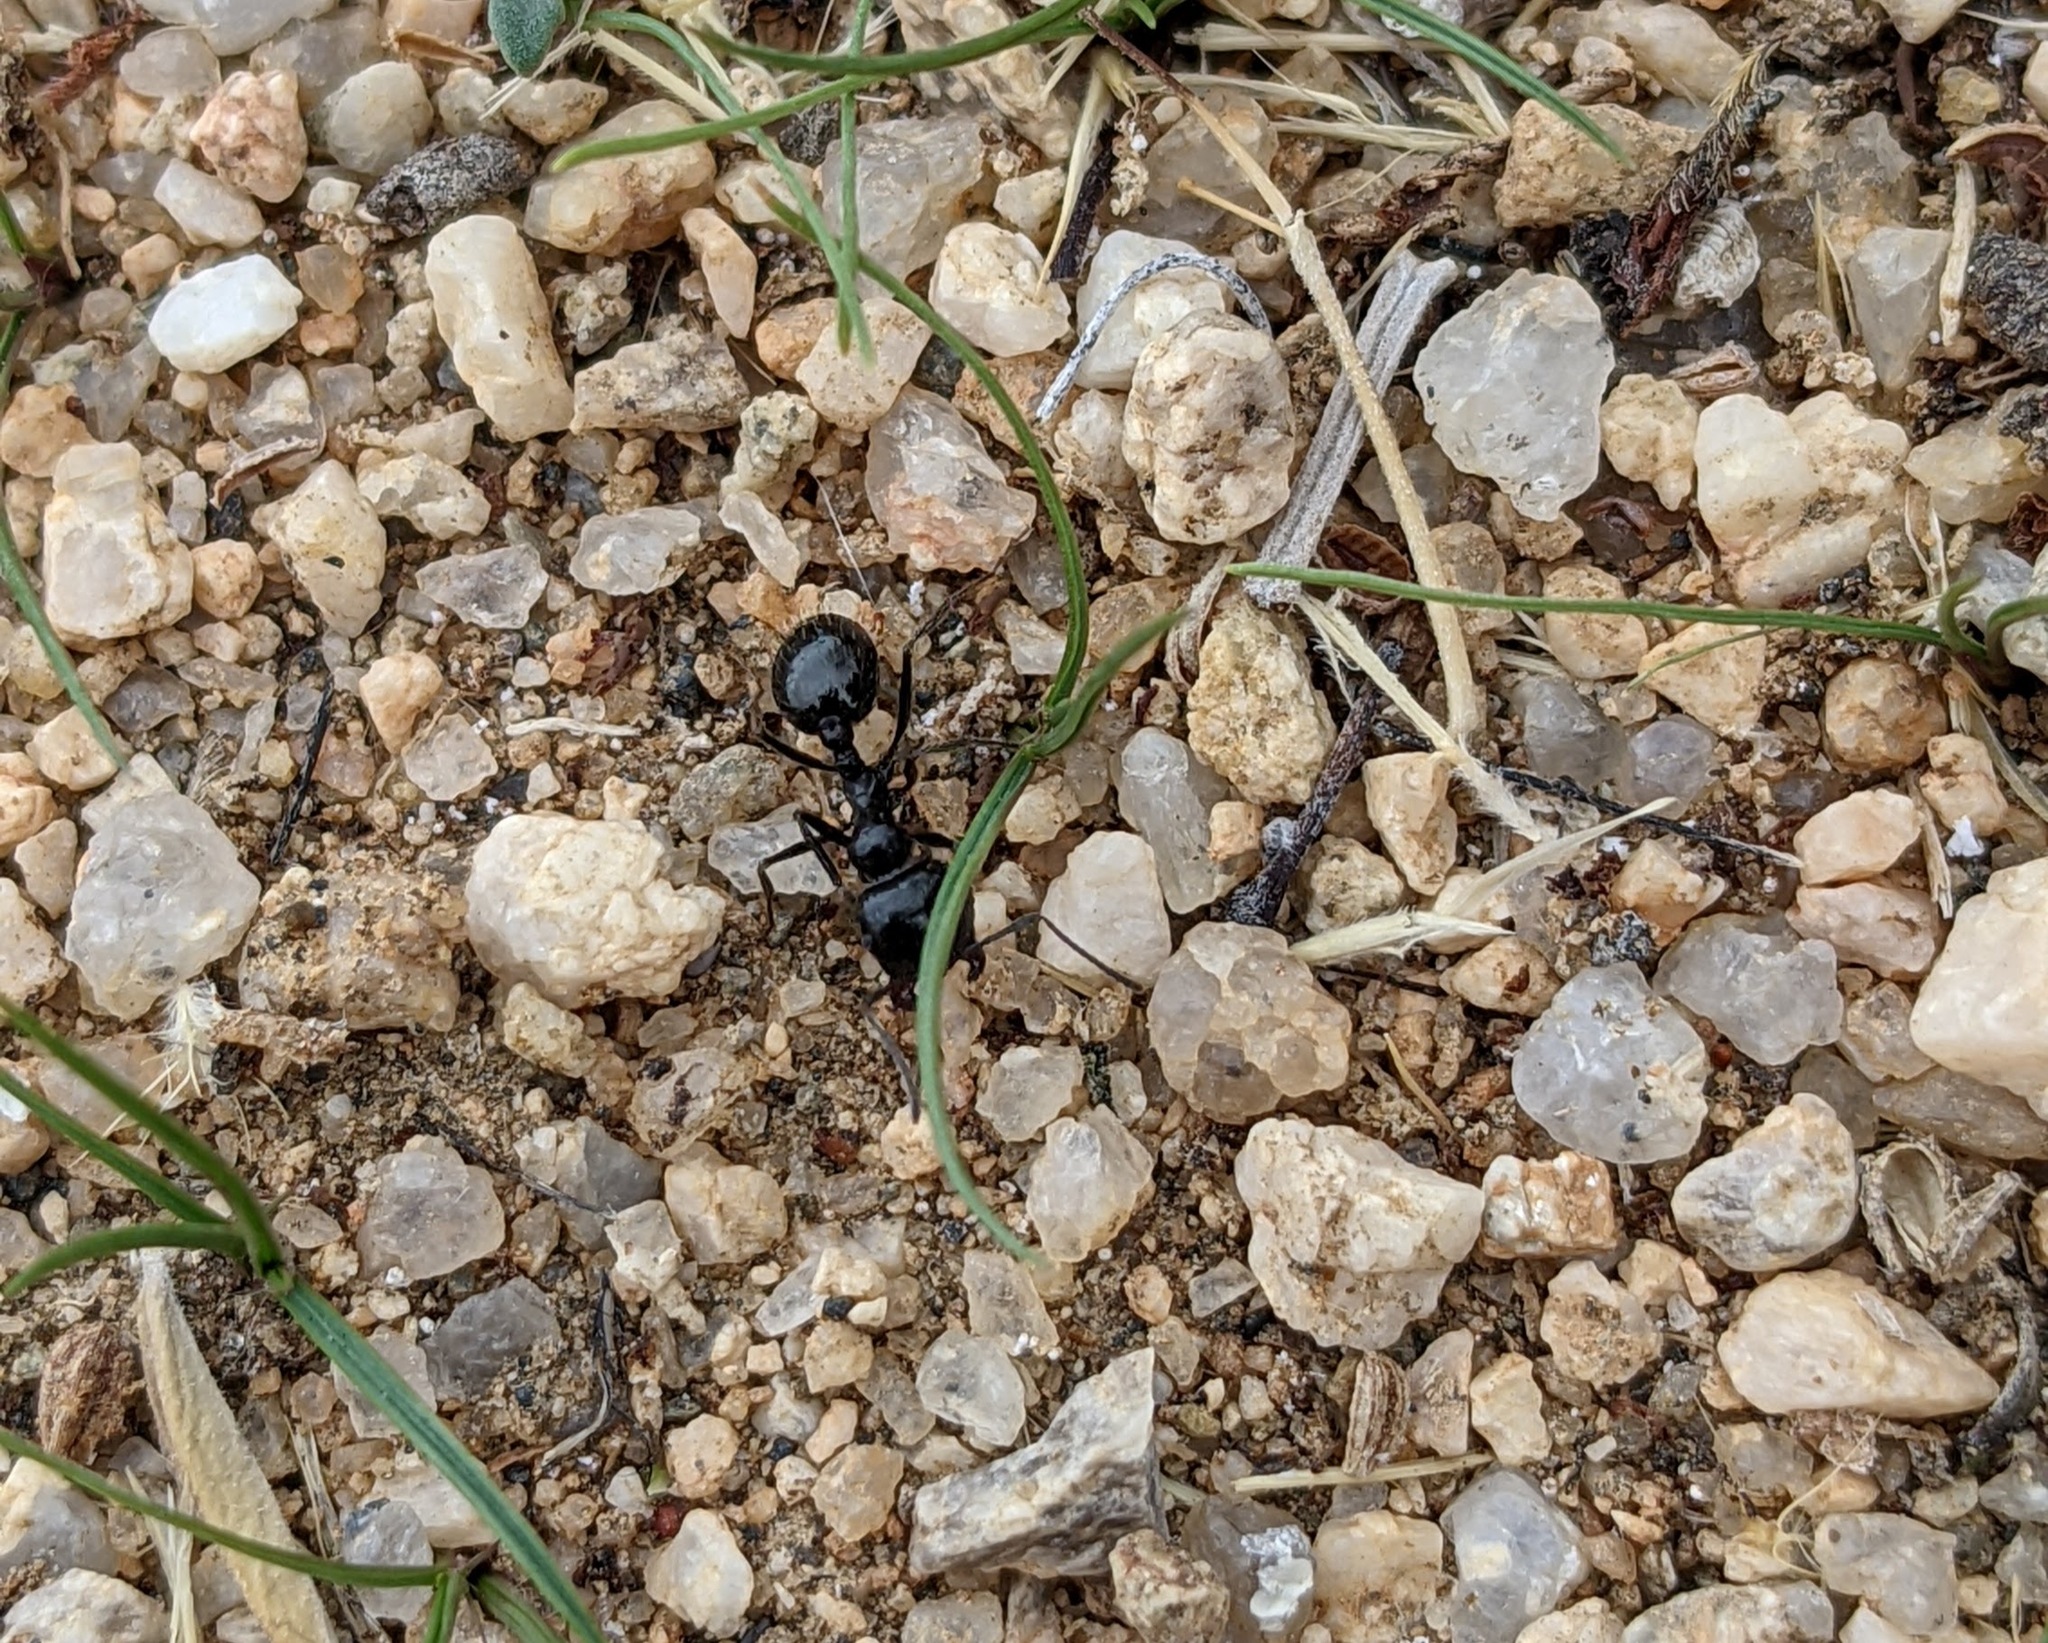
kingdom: Animalia
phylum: Arthropoda
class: Insecta
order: Hymenoptera
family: Formicidae
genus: Messor
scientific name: Messor pergandei
